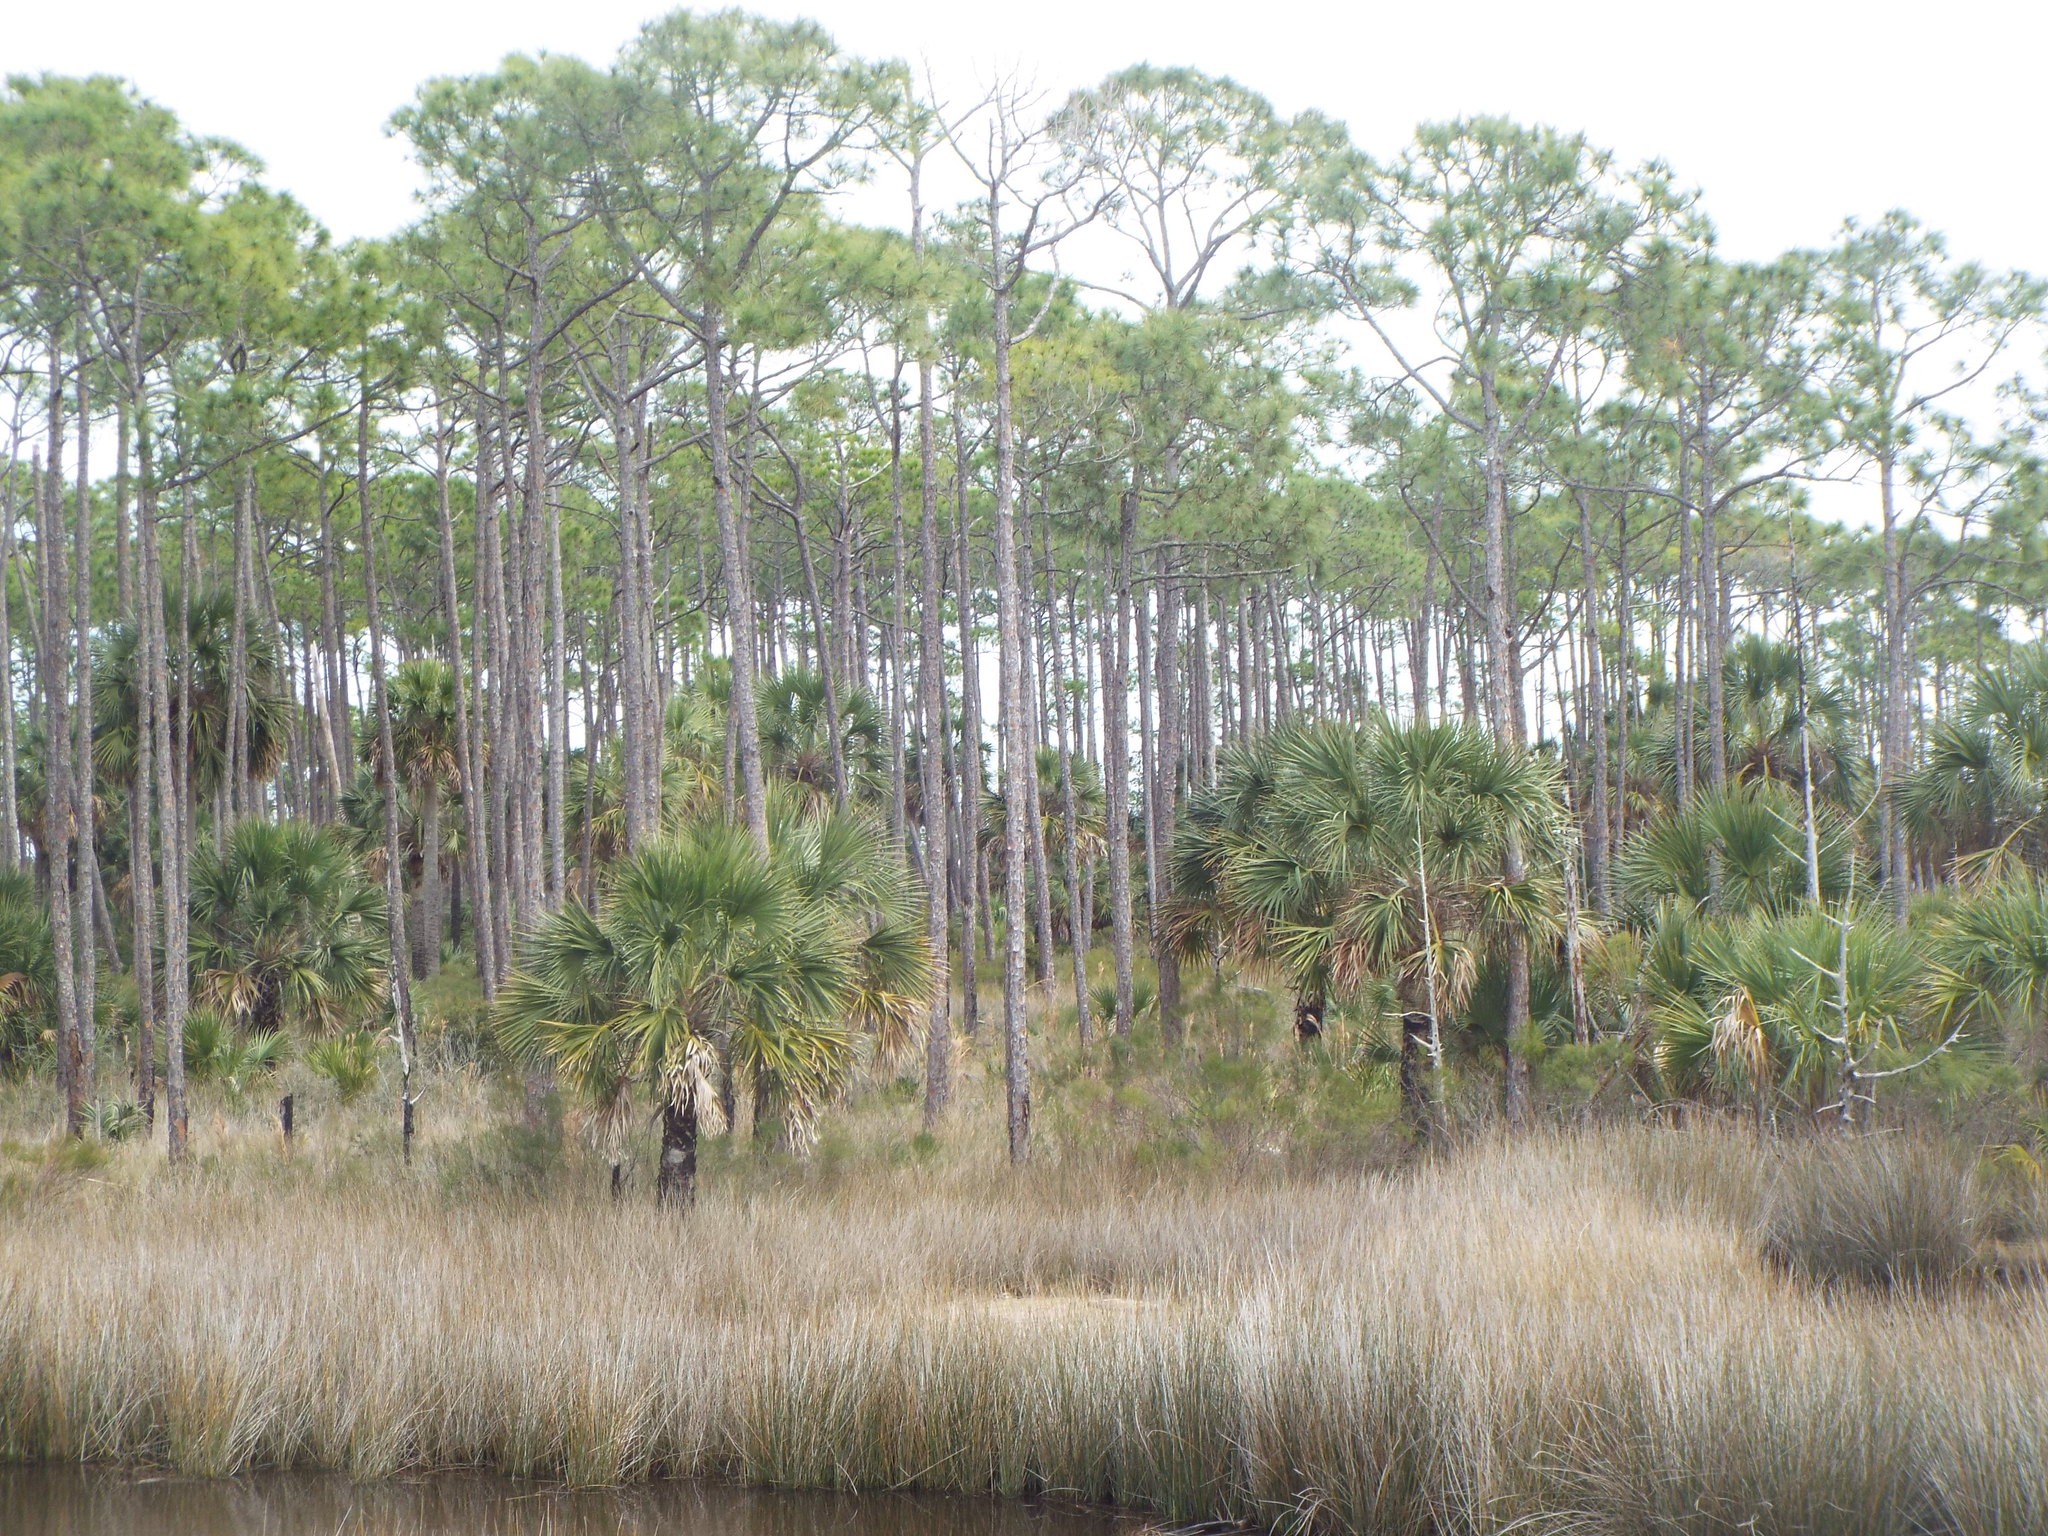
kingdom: Plantae
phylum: Tracheophyta
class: Liliopsida
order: Arecales
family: Arecaceae
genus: Sabal
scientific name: Sabal palmetto
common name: Blue palmetto
